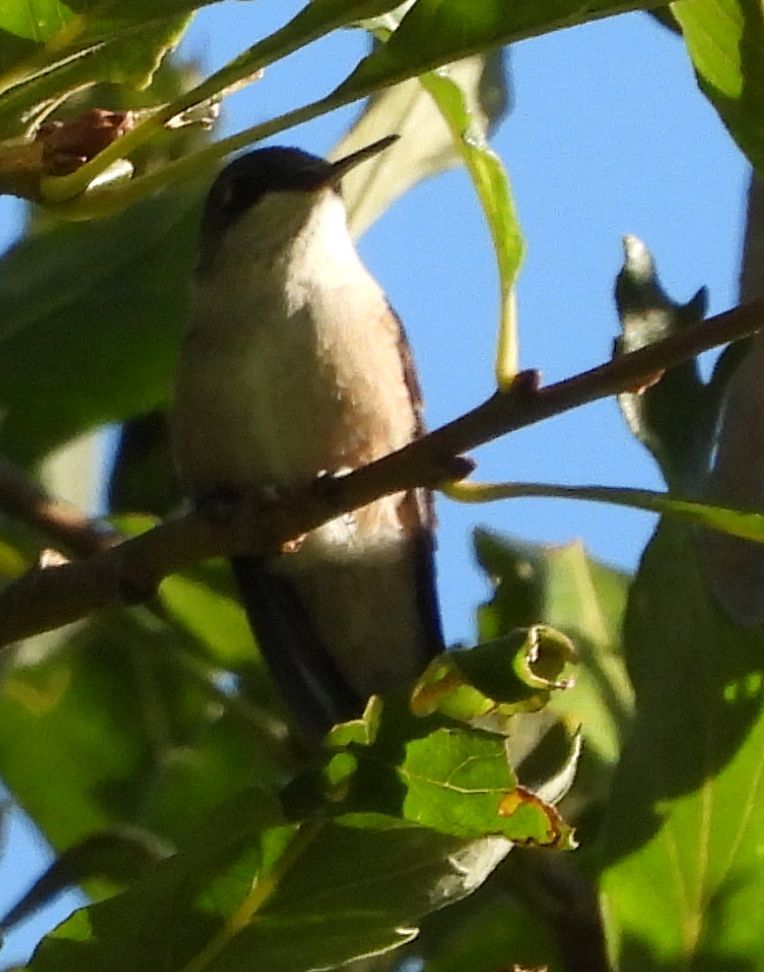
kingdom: Animalia
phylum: Chordata
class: Aves
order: Apodiformes
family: Trochilidae
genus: Archilochus
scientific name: Archilochus colubris
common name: Ruby-throated hummingbird
